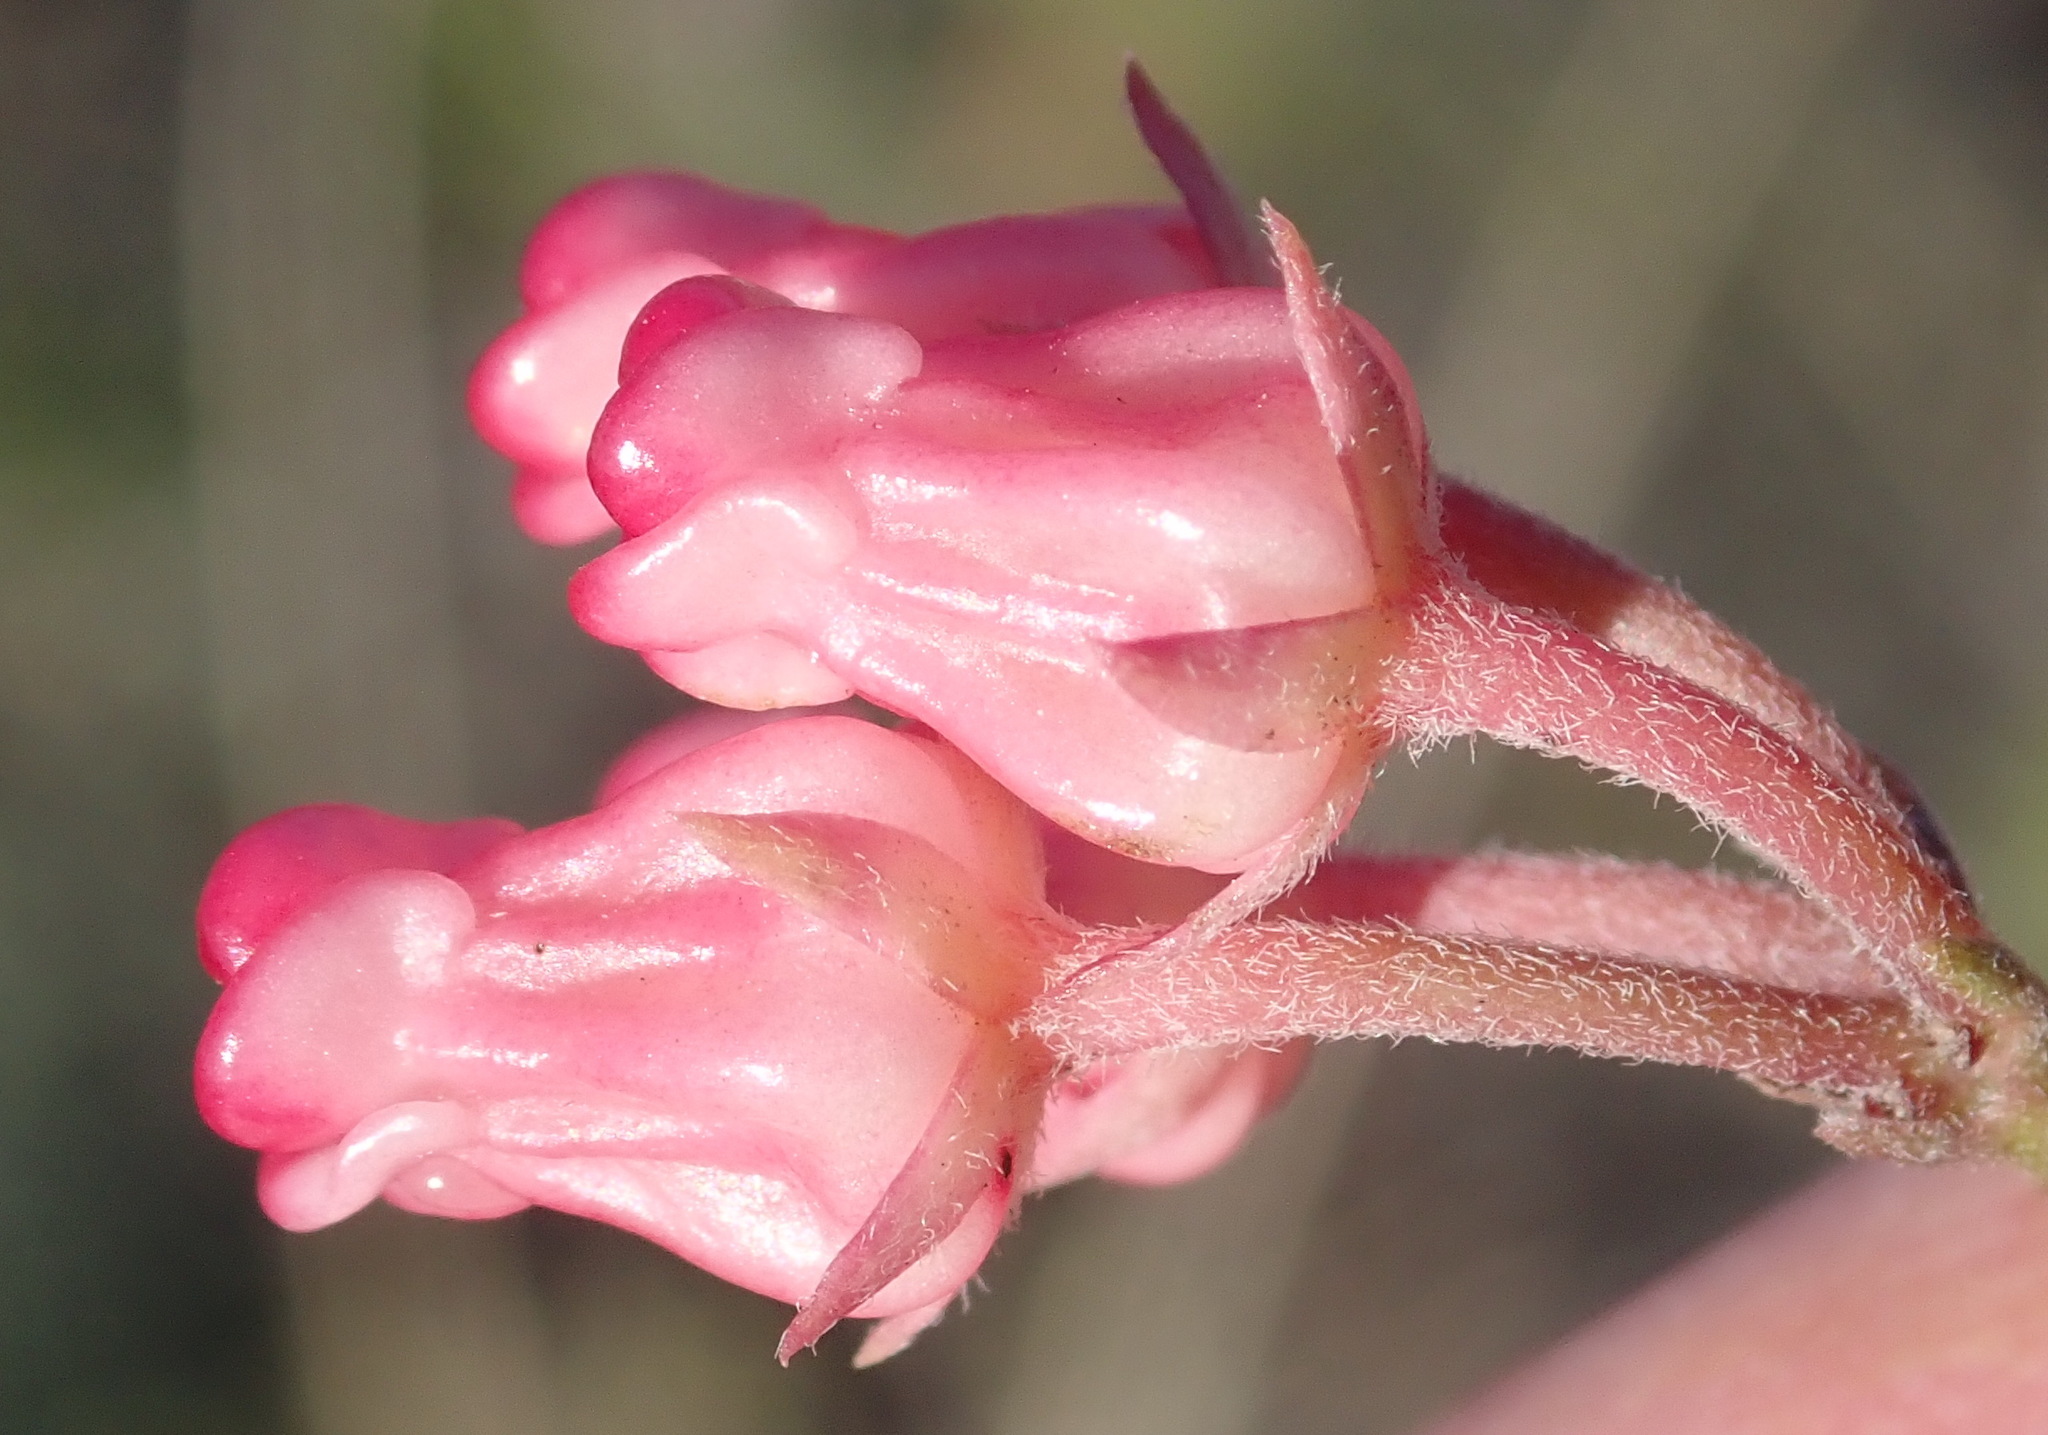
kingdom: Plantae
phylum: Tracheophyta
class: Magnoliopsida
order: Gentianales
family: Apocynaceae
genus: Microloma
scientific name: Microloma tenuifolium
